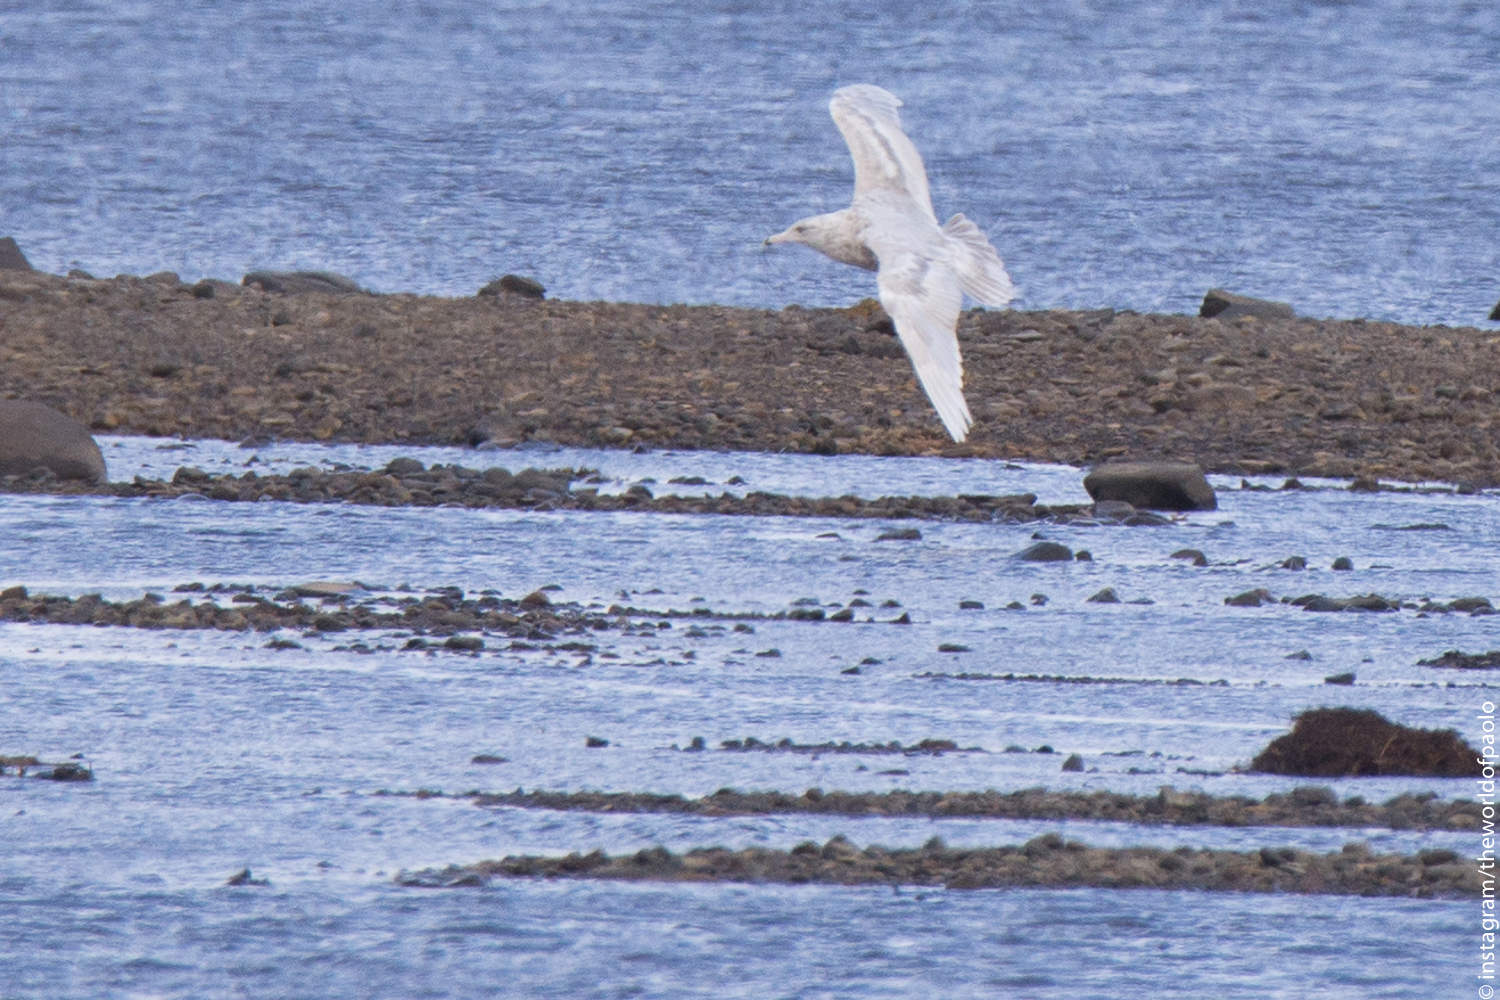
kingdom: Animalia
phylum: Chordata
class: Aves
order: Charadriiformes
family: Laridae
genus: Larus
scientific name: Larus hyperboreus
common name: Glaucous gull
